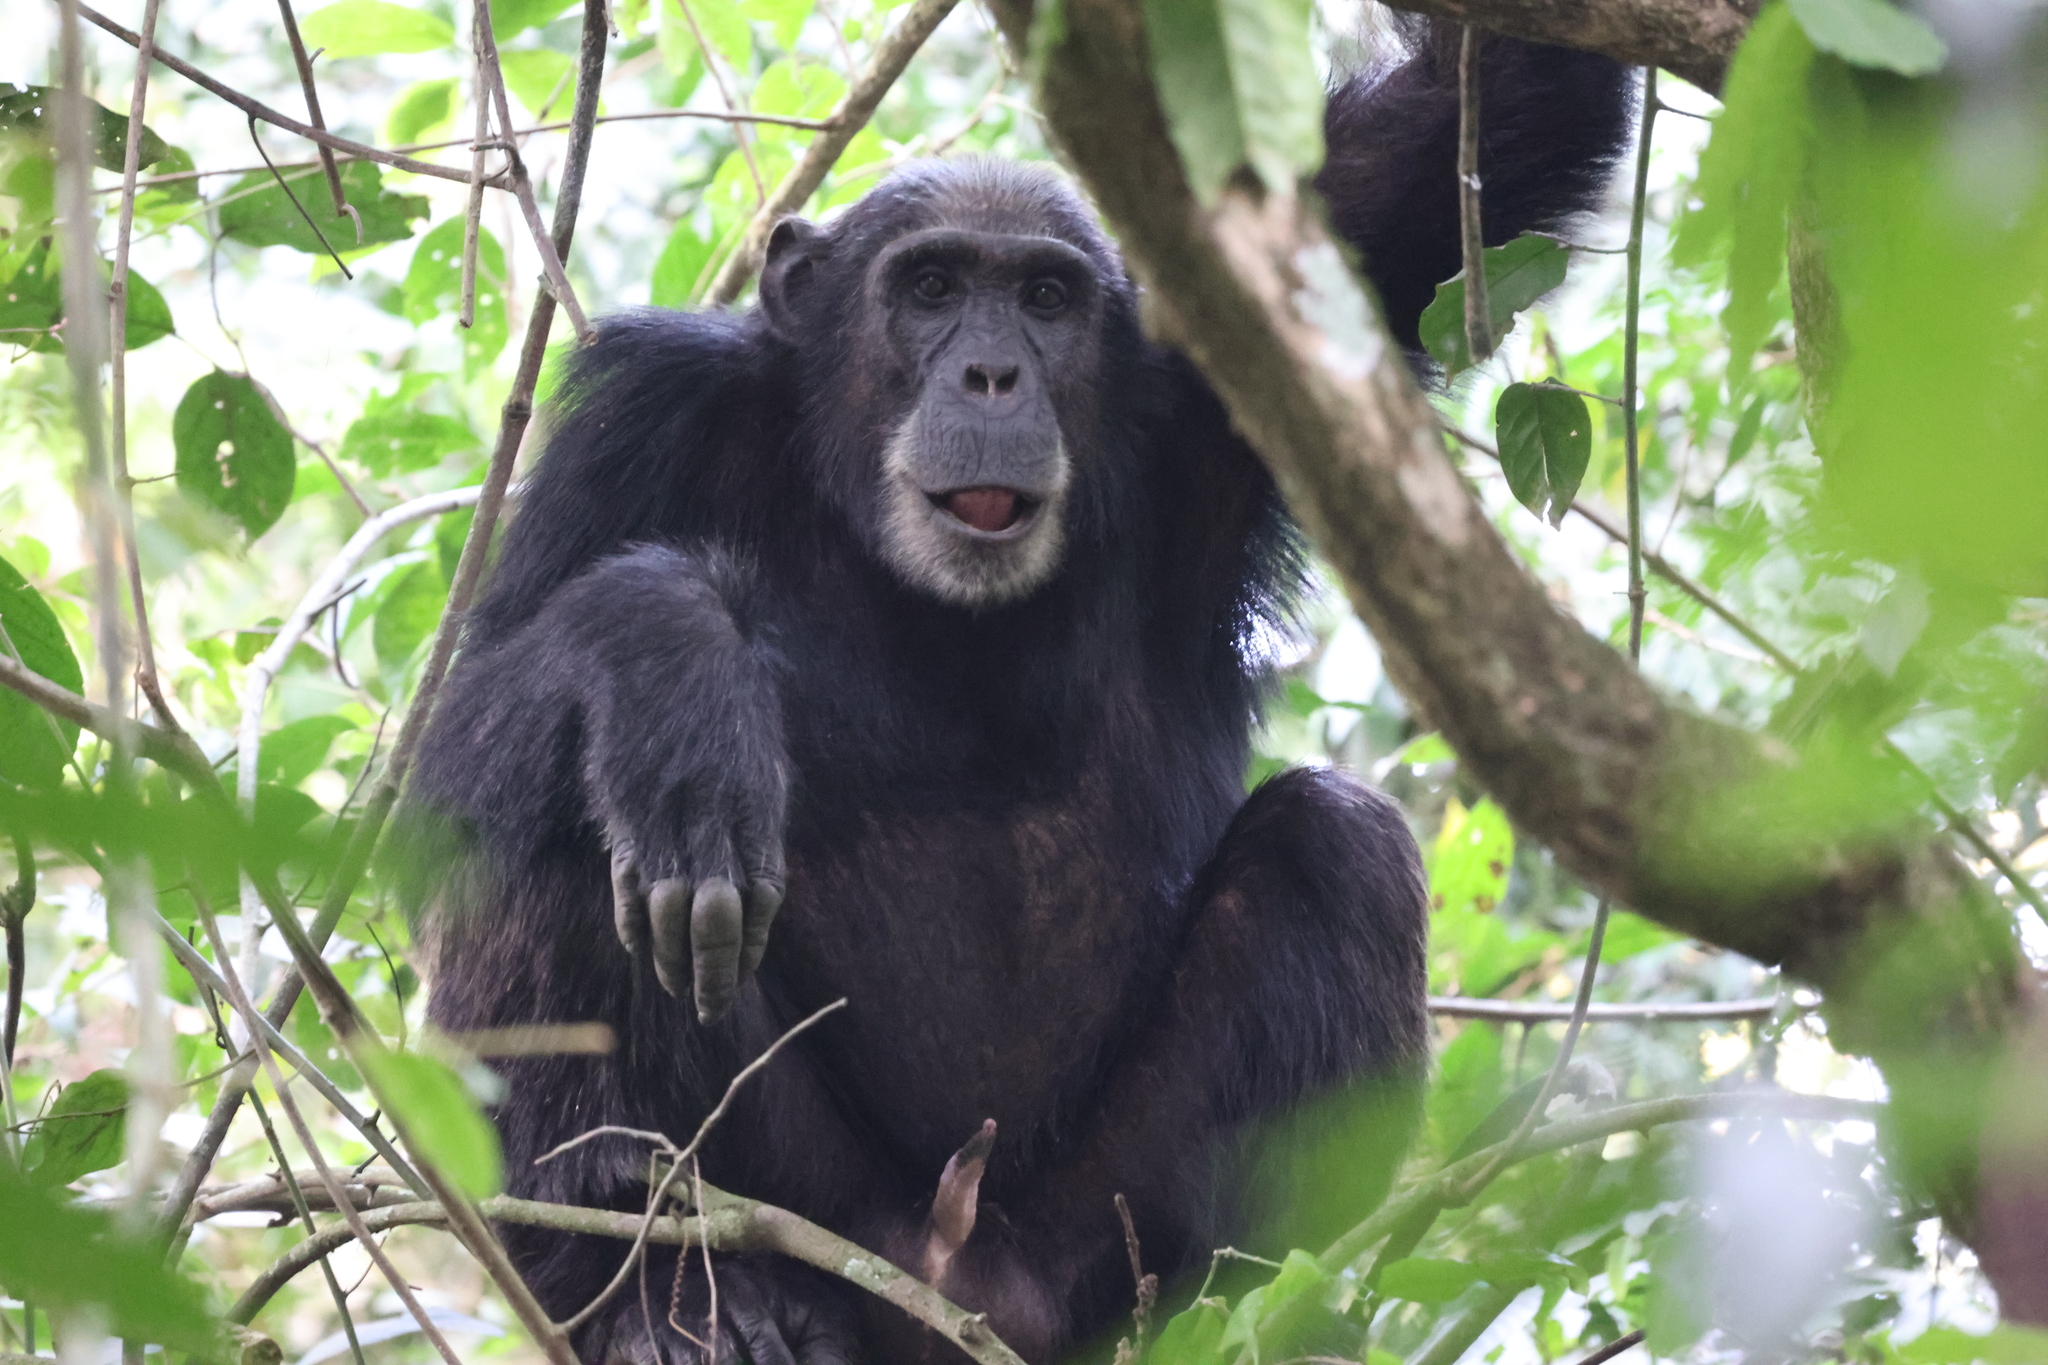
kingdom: Animalia
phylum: Chordata
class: Mammalia
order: Primates
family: Hominidae
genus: Pan
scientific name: Pan troglodytes
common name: Chimpanzee
